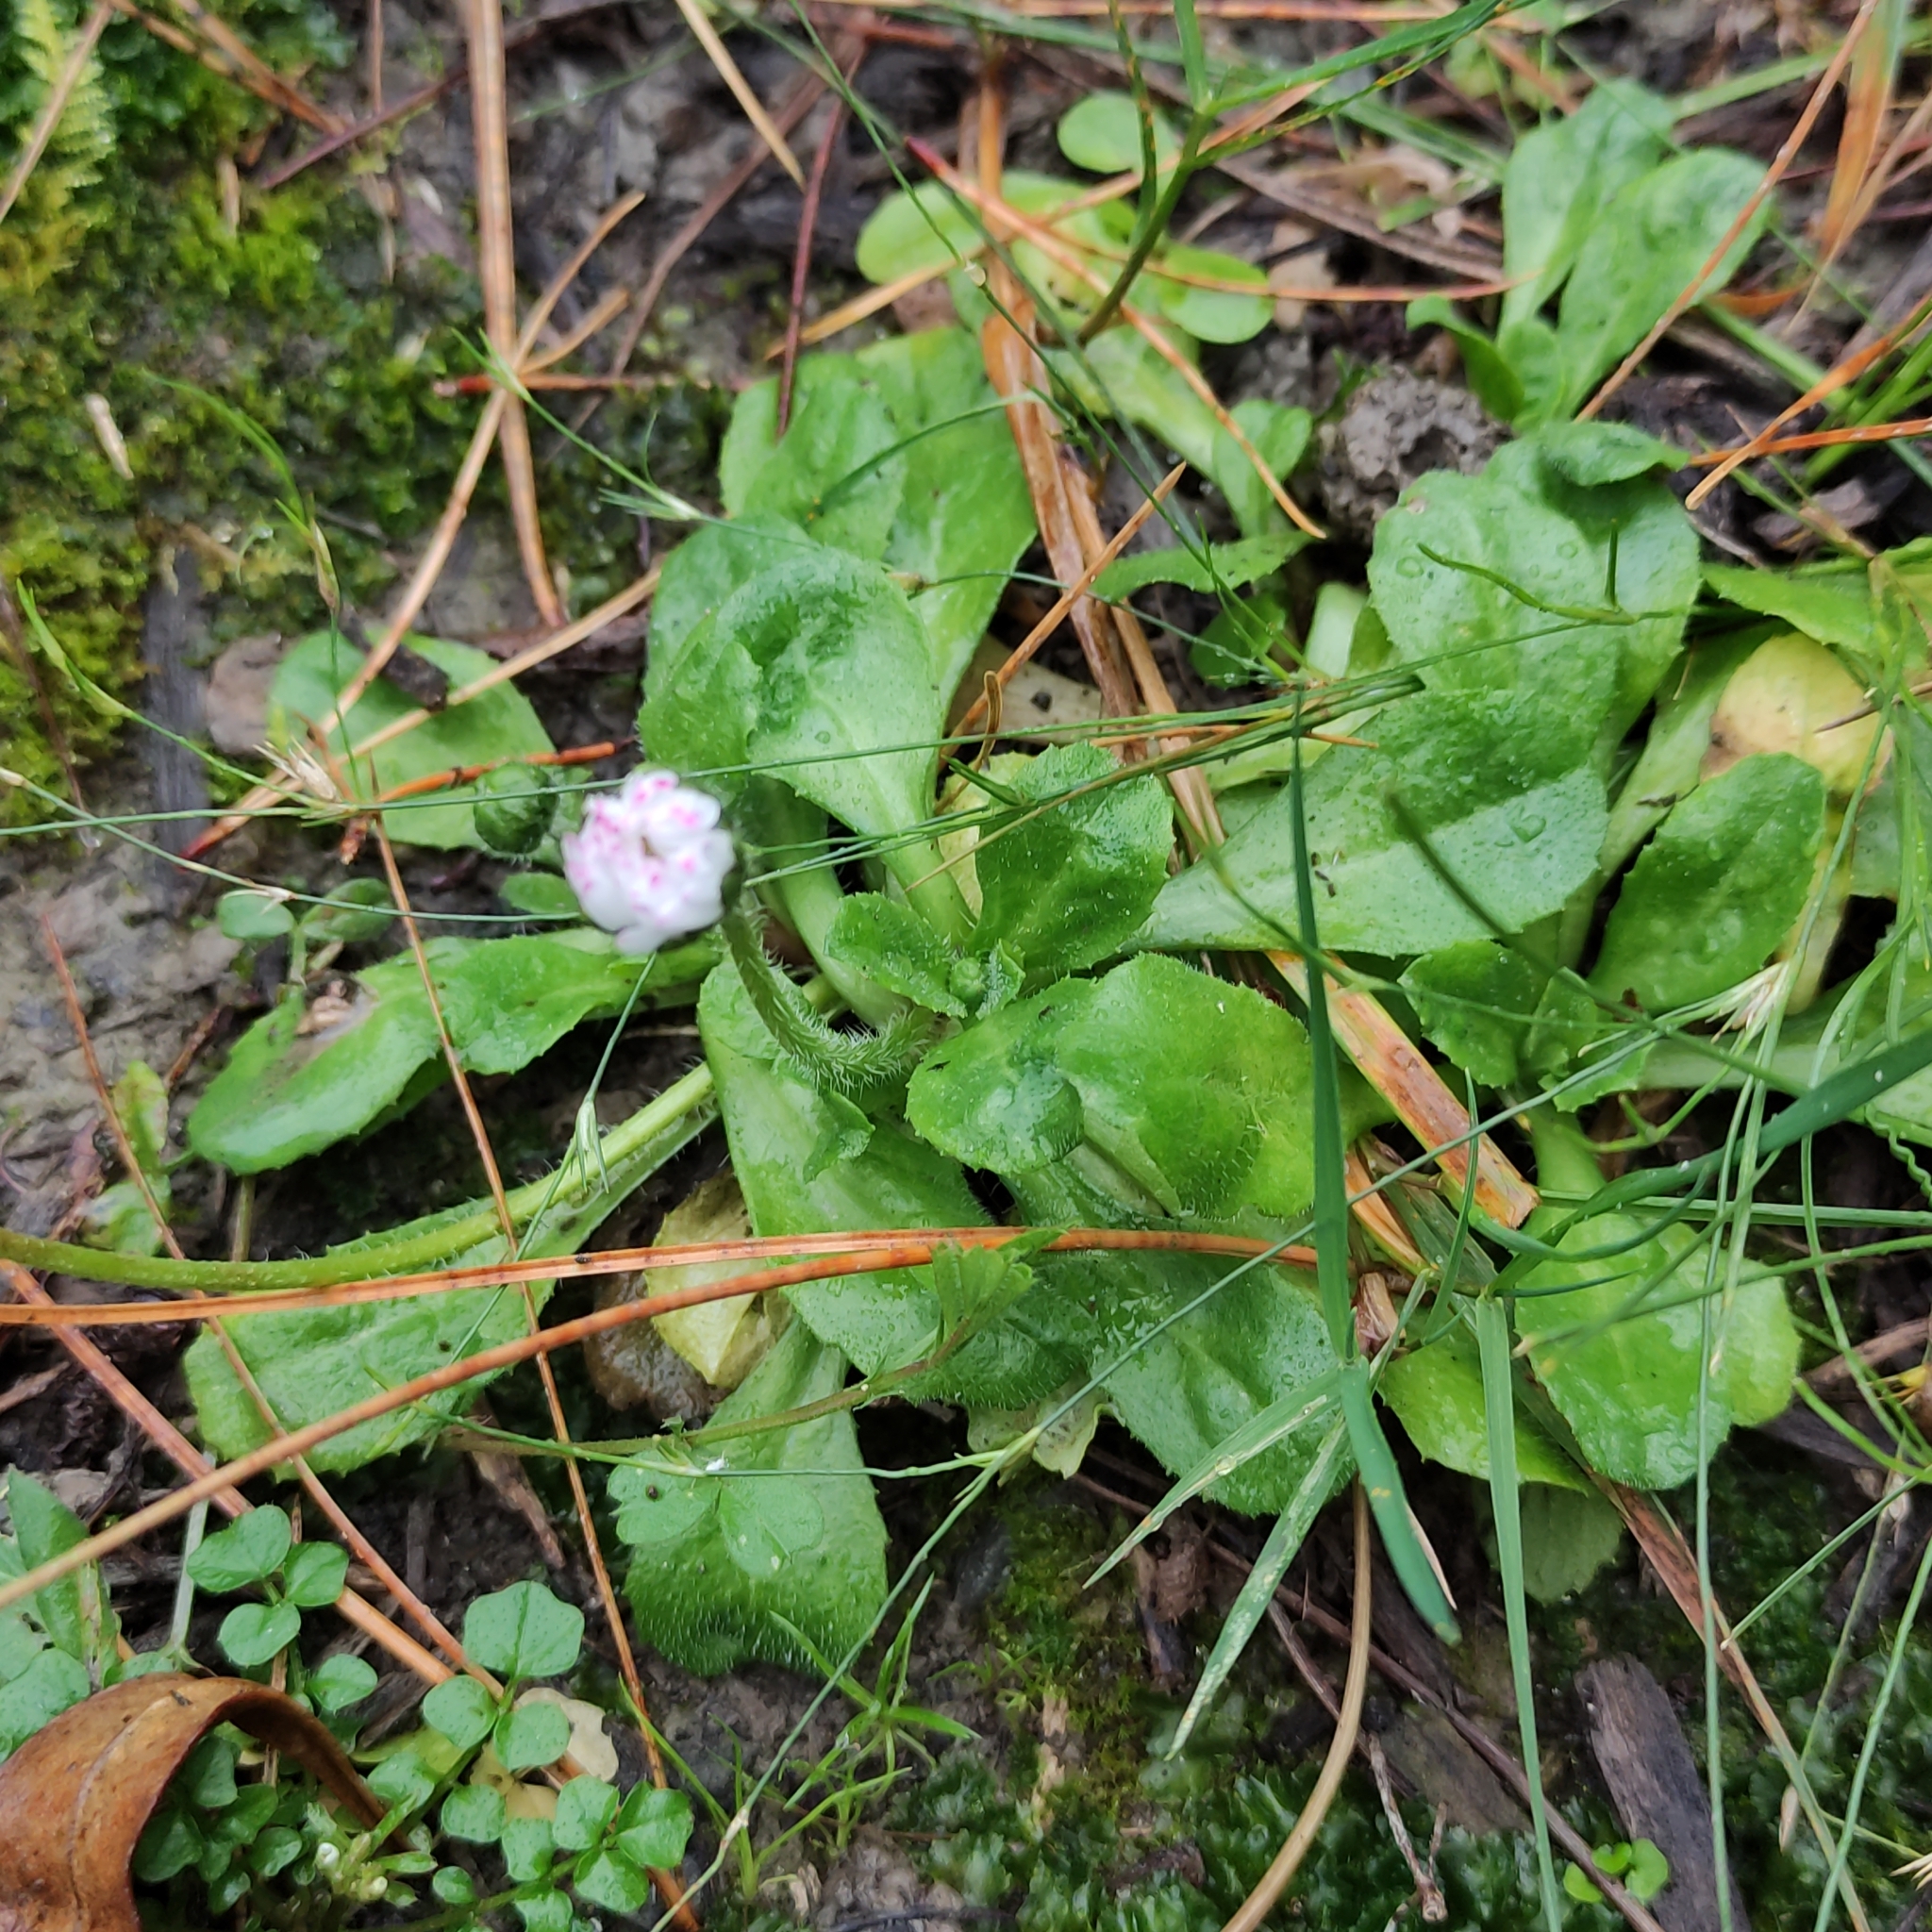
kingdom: Plantae
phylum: Tracheophyta
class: Magnoliopsida
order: Asterales
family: Asteraceae
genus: Bellis
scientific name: Bellis perennis
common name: Lawndaisy
